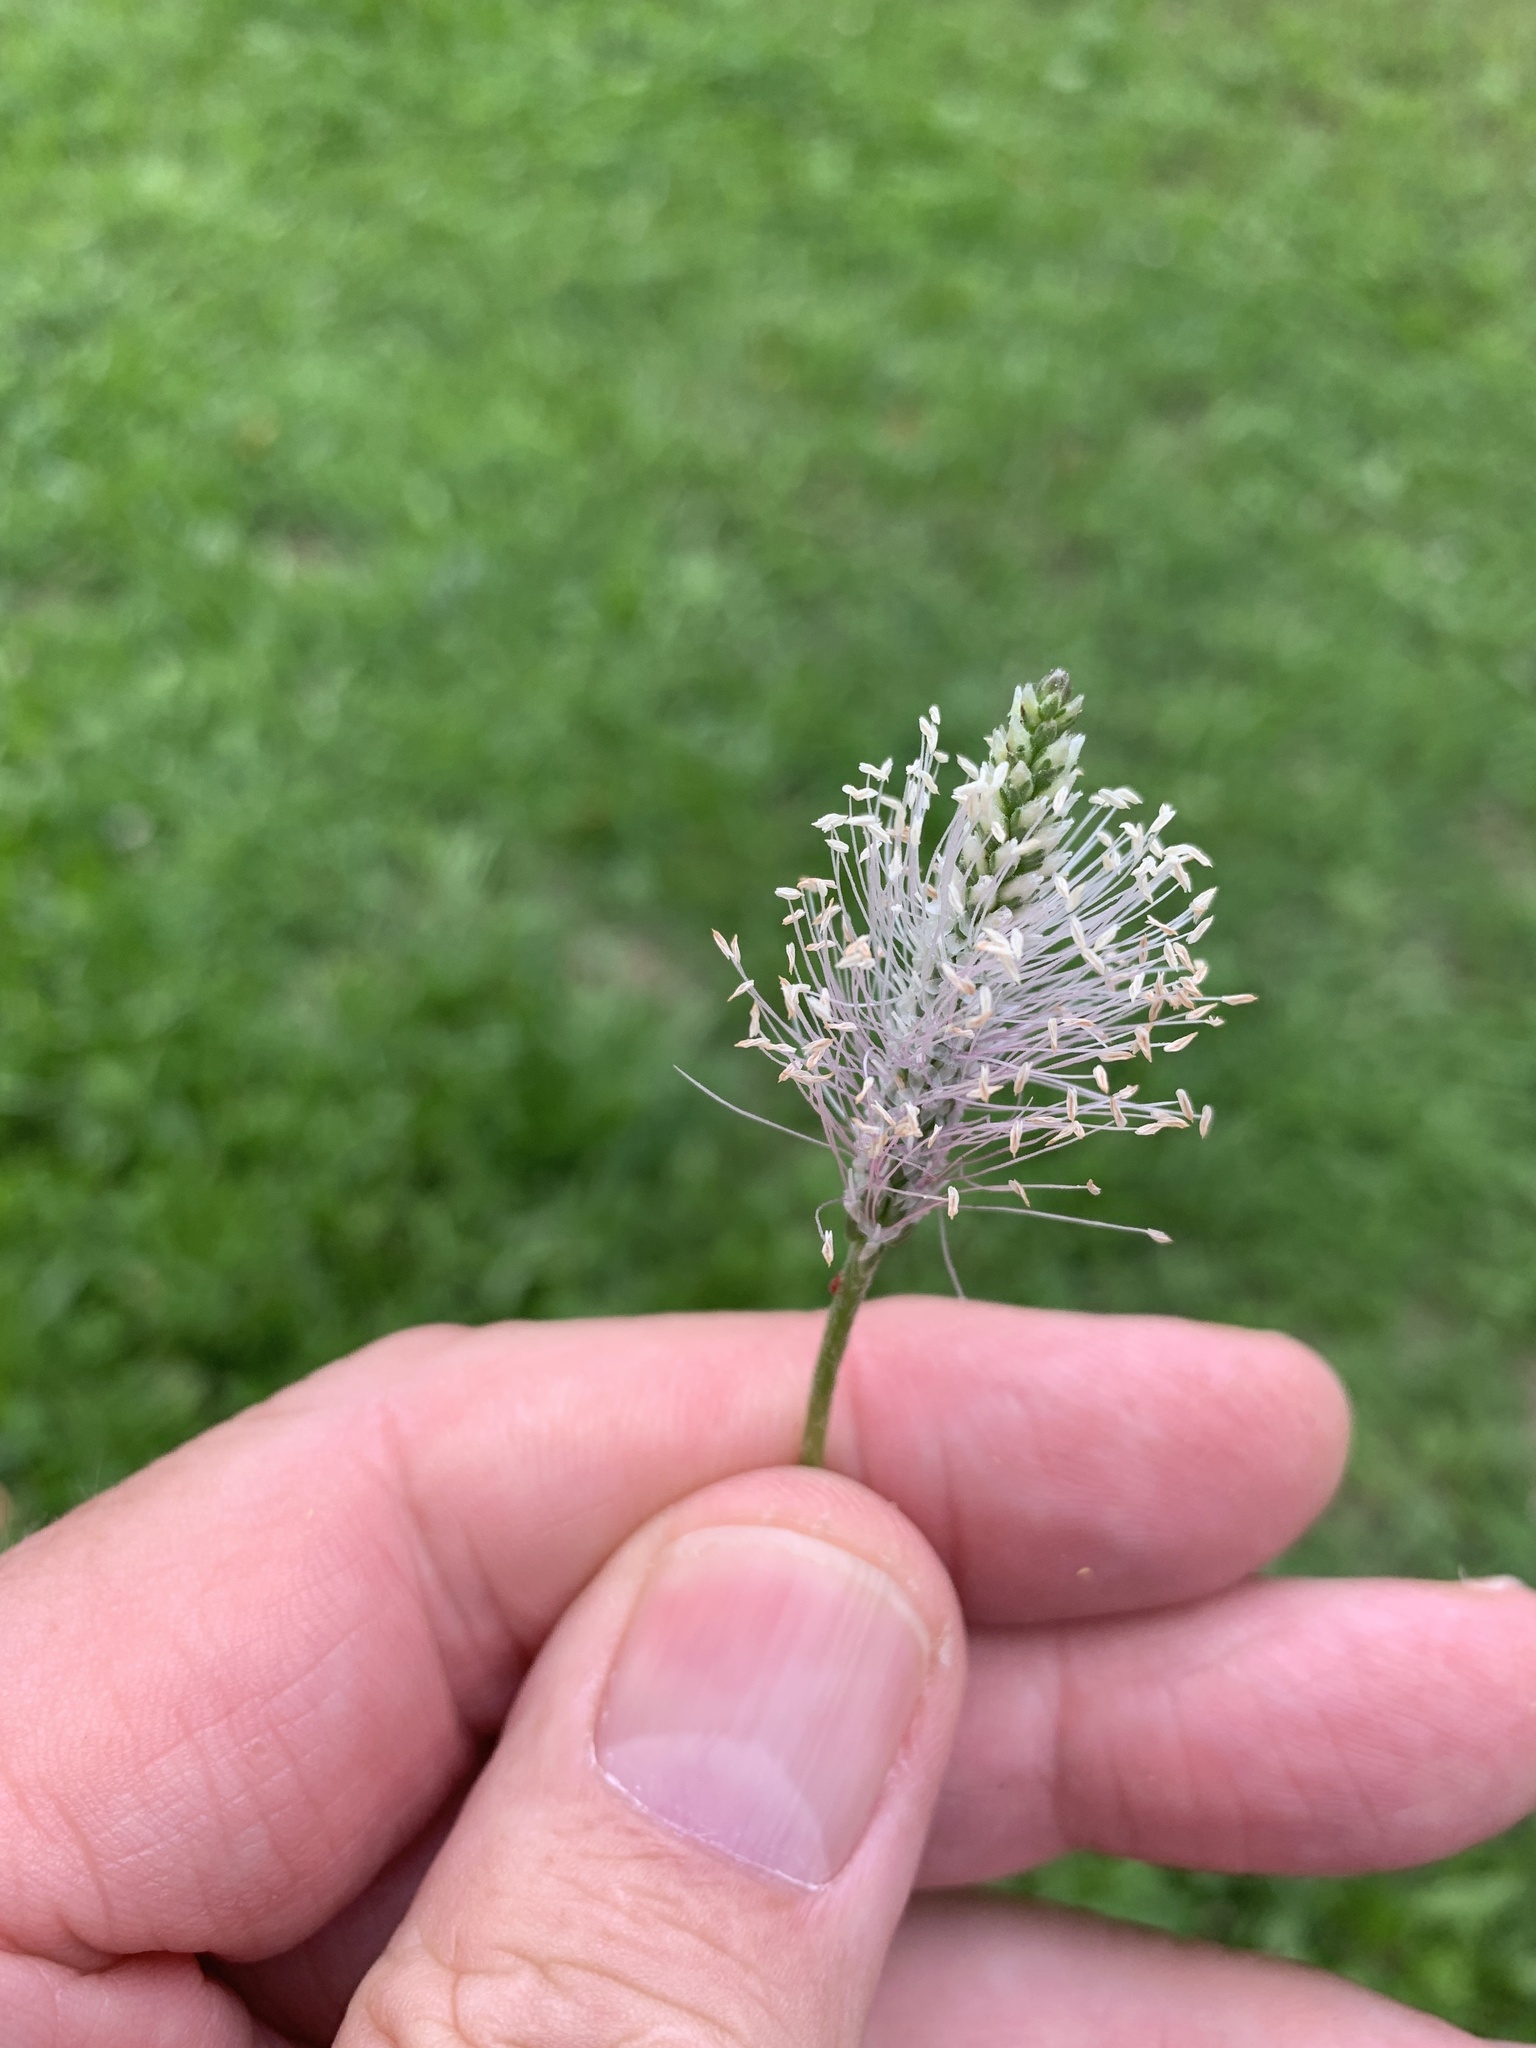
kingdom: Plantae
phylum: Tracheophyta
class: Magnoliopsida
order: Lamiales
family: Plantaginaceae
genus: Plantago
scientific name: Plantago media
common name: Hoary plantain
